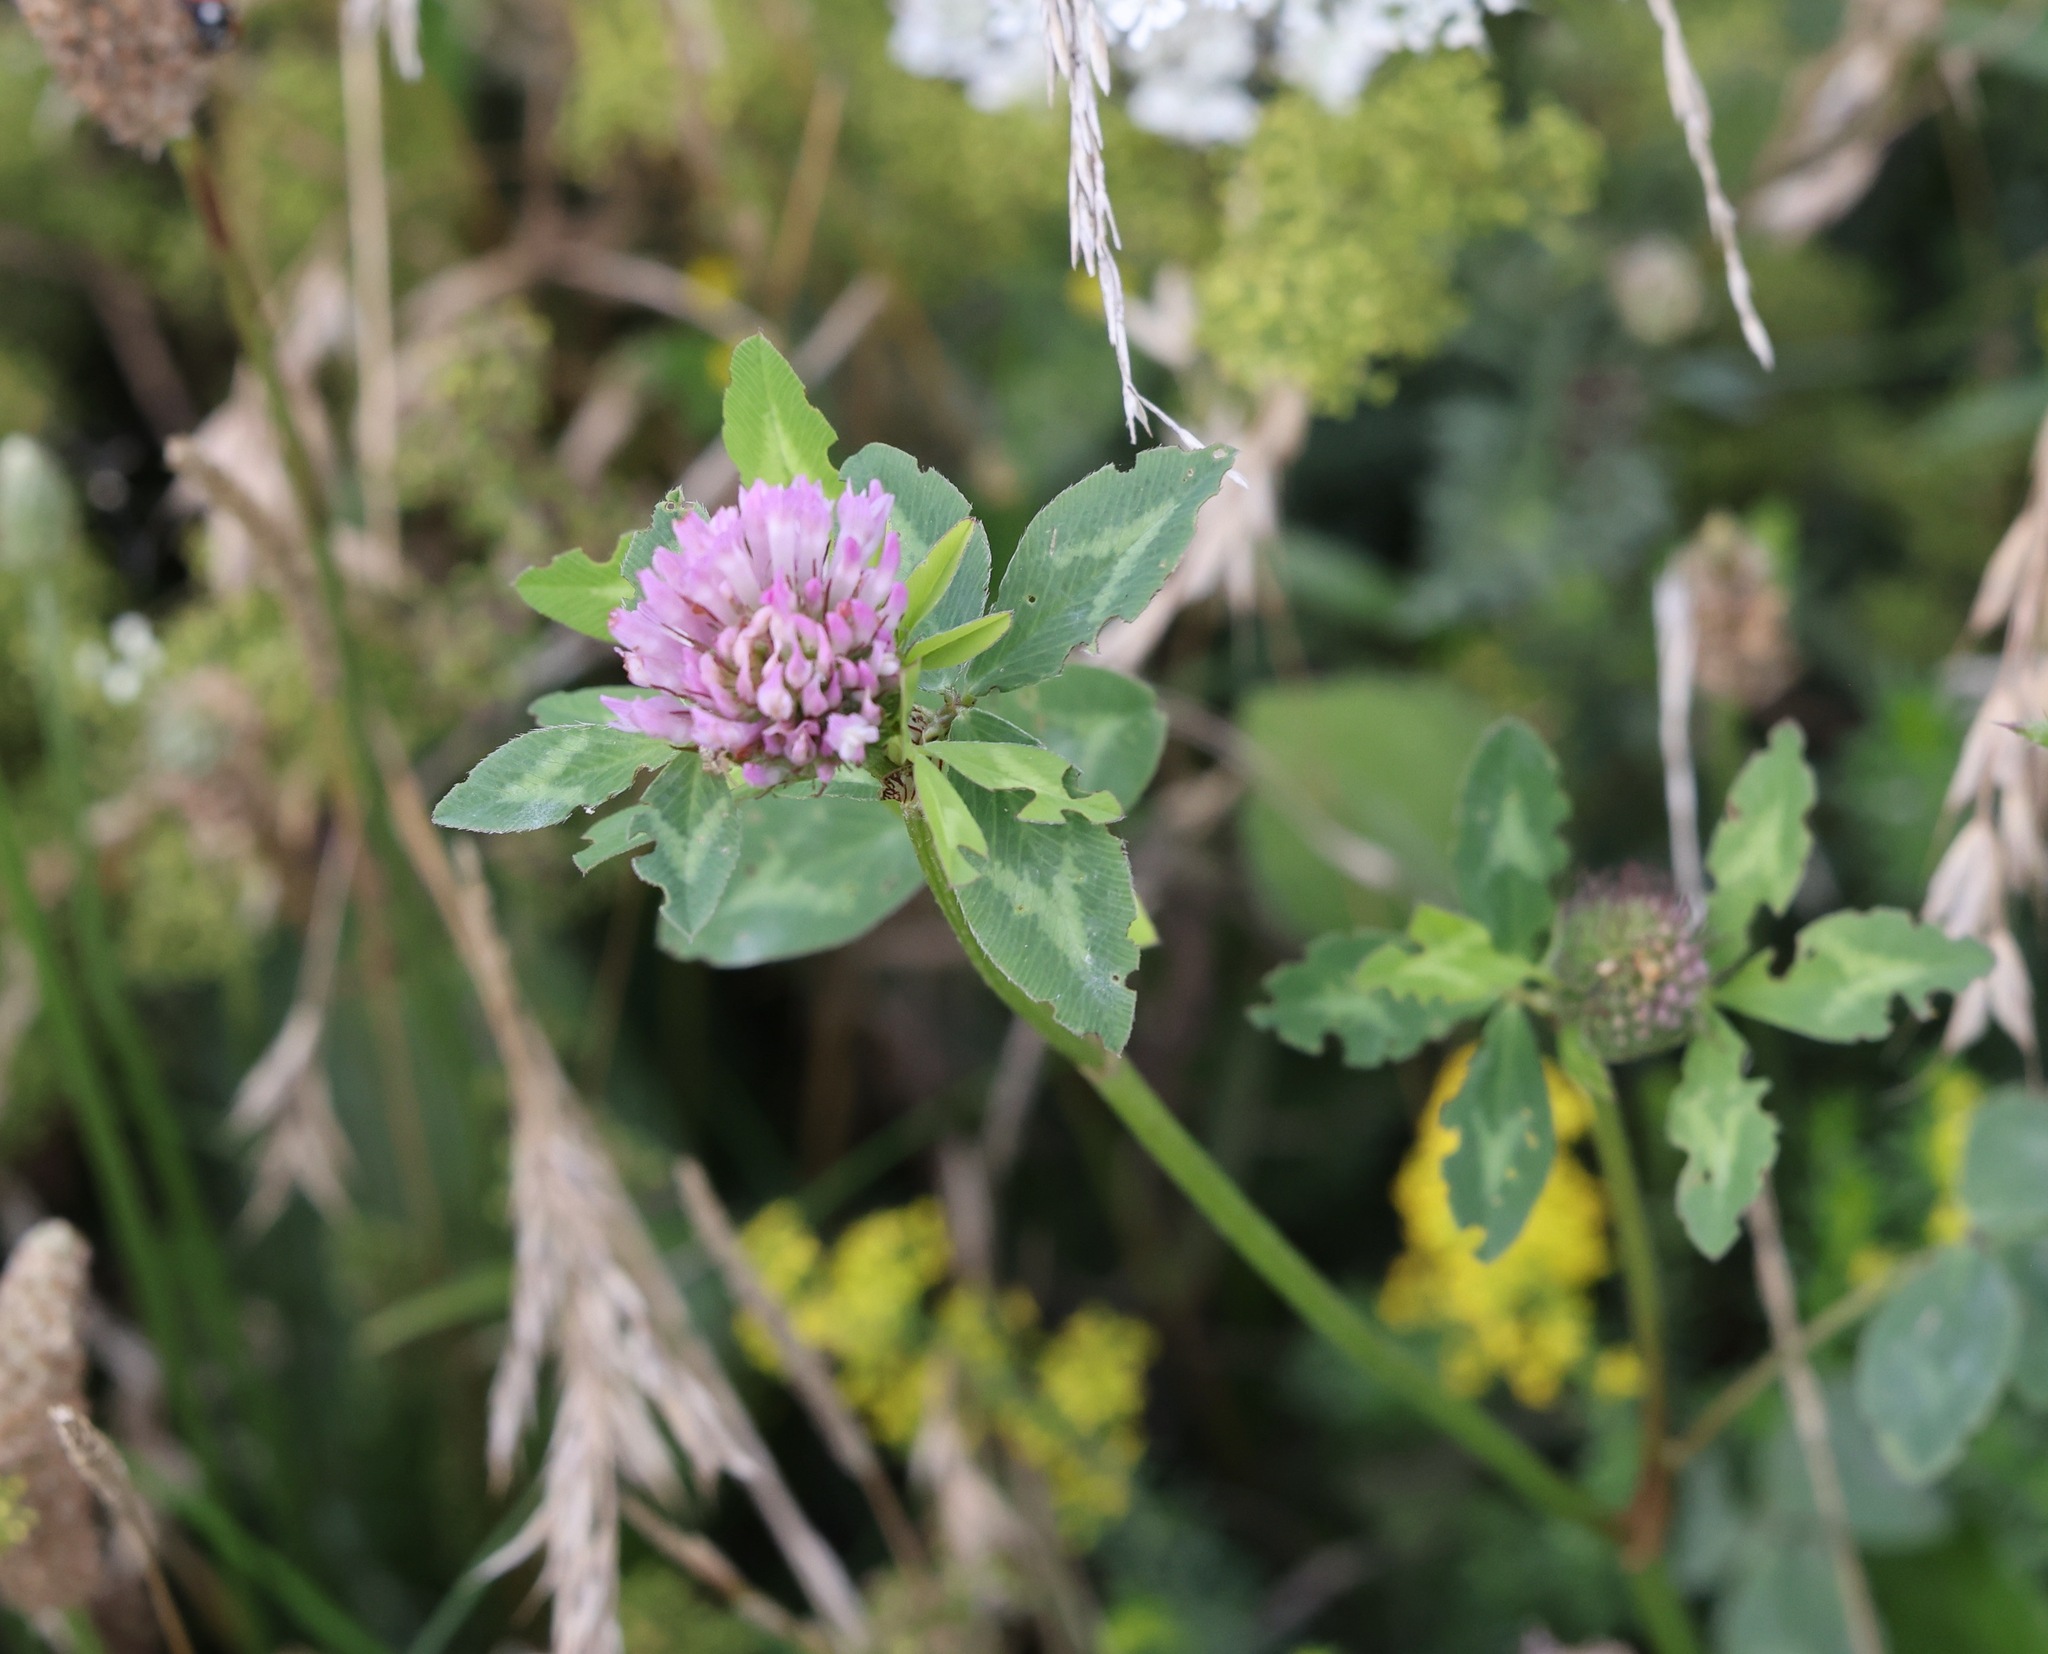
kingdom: Plantae
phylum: Tracheophyta
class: Magnoliopsida
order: Fabales
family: Fabaceae
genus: Trifolium
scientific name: Trifolium pratense
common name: Red clover
